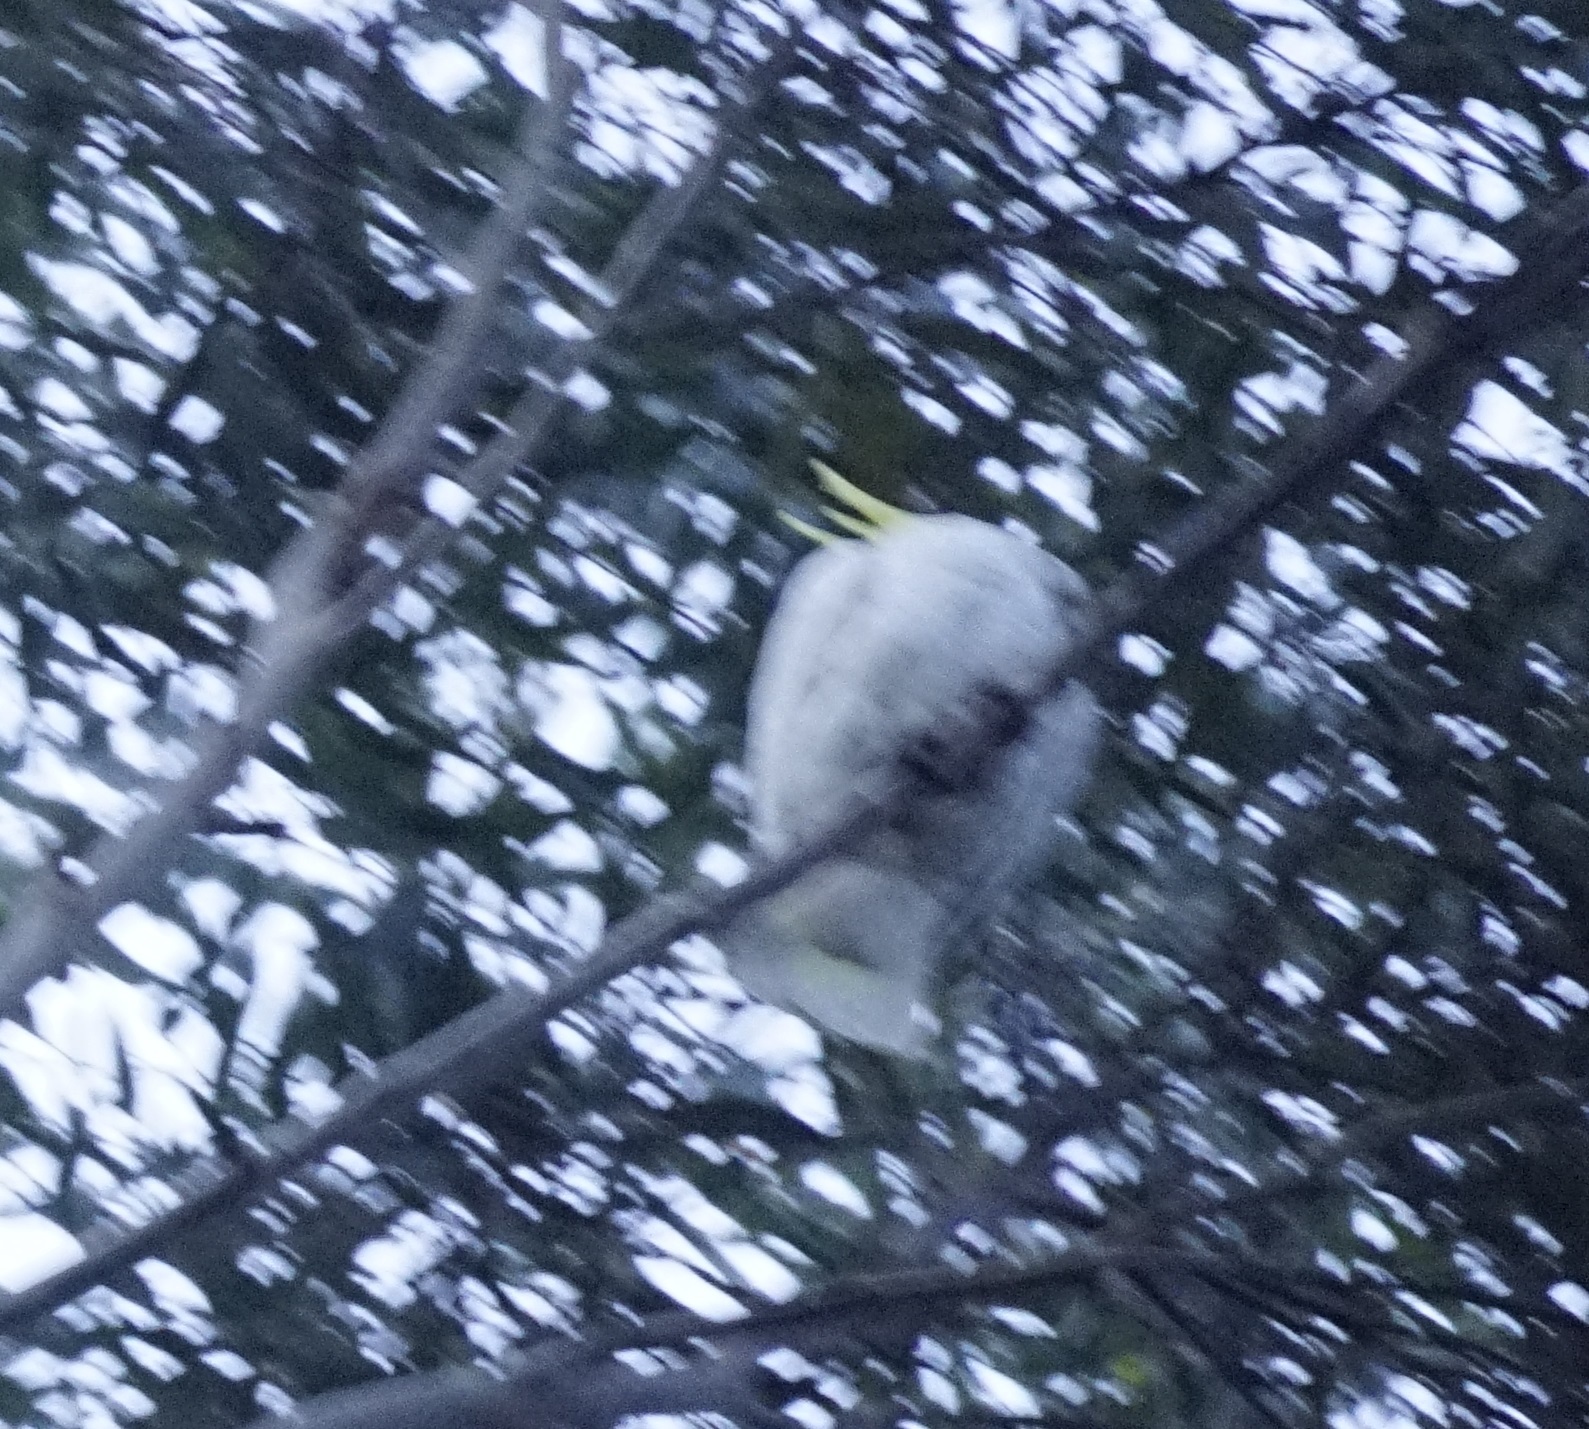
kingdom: Animalia
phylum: Chordata
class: Aves
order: Psittaciformes
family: Psittacidae
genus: Cacatua
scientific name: Cacatua galerita
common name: Sulphur-crested cockatoo
